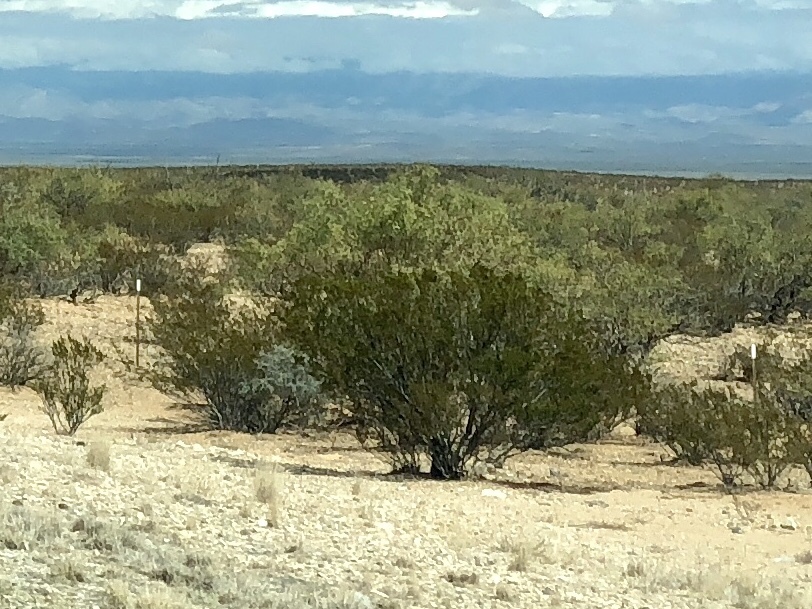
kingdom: Plantae
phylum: Tracheophyta
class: Magnoliopsida
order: Zygophyllales
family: Zygophyllaceae
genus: Larrea
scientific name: Larrea tridentata
